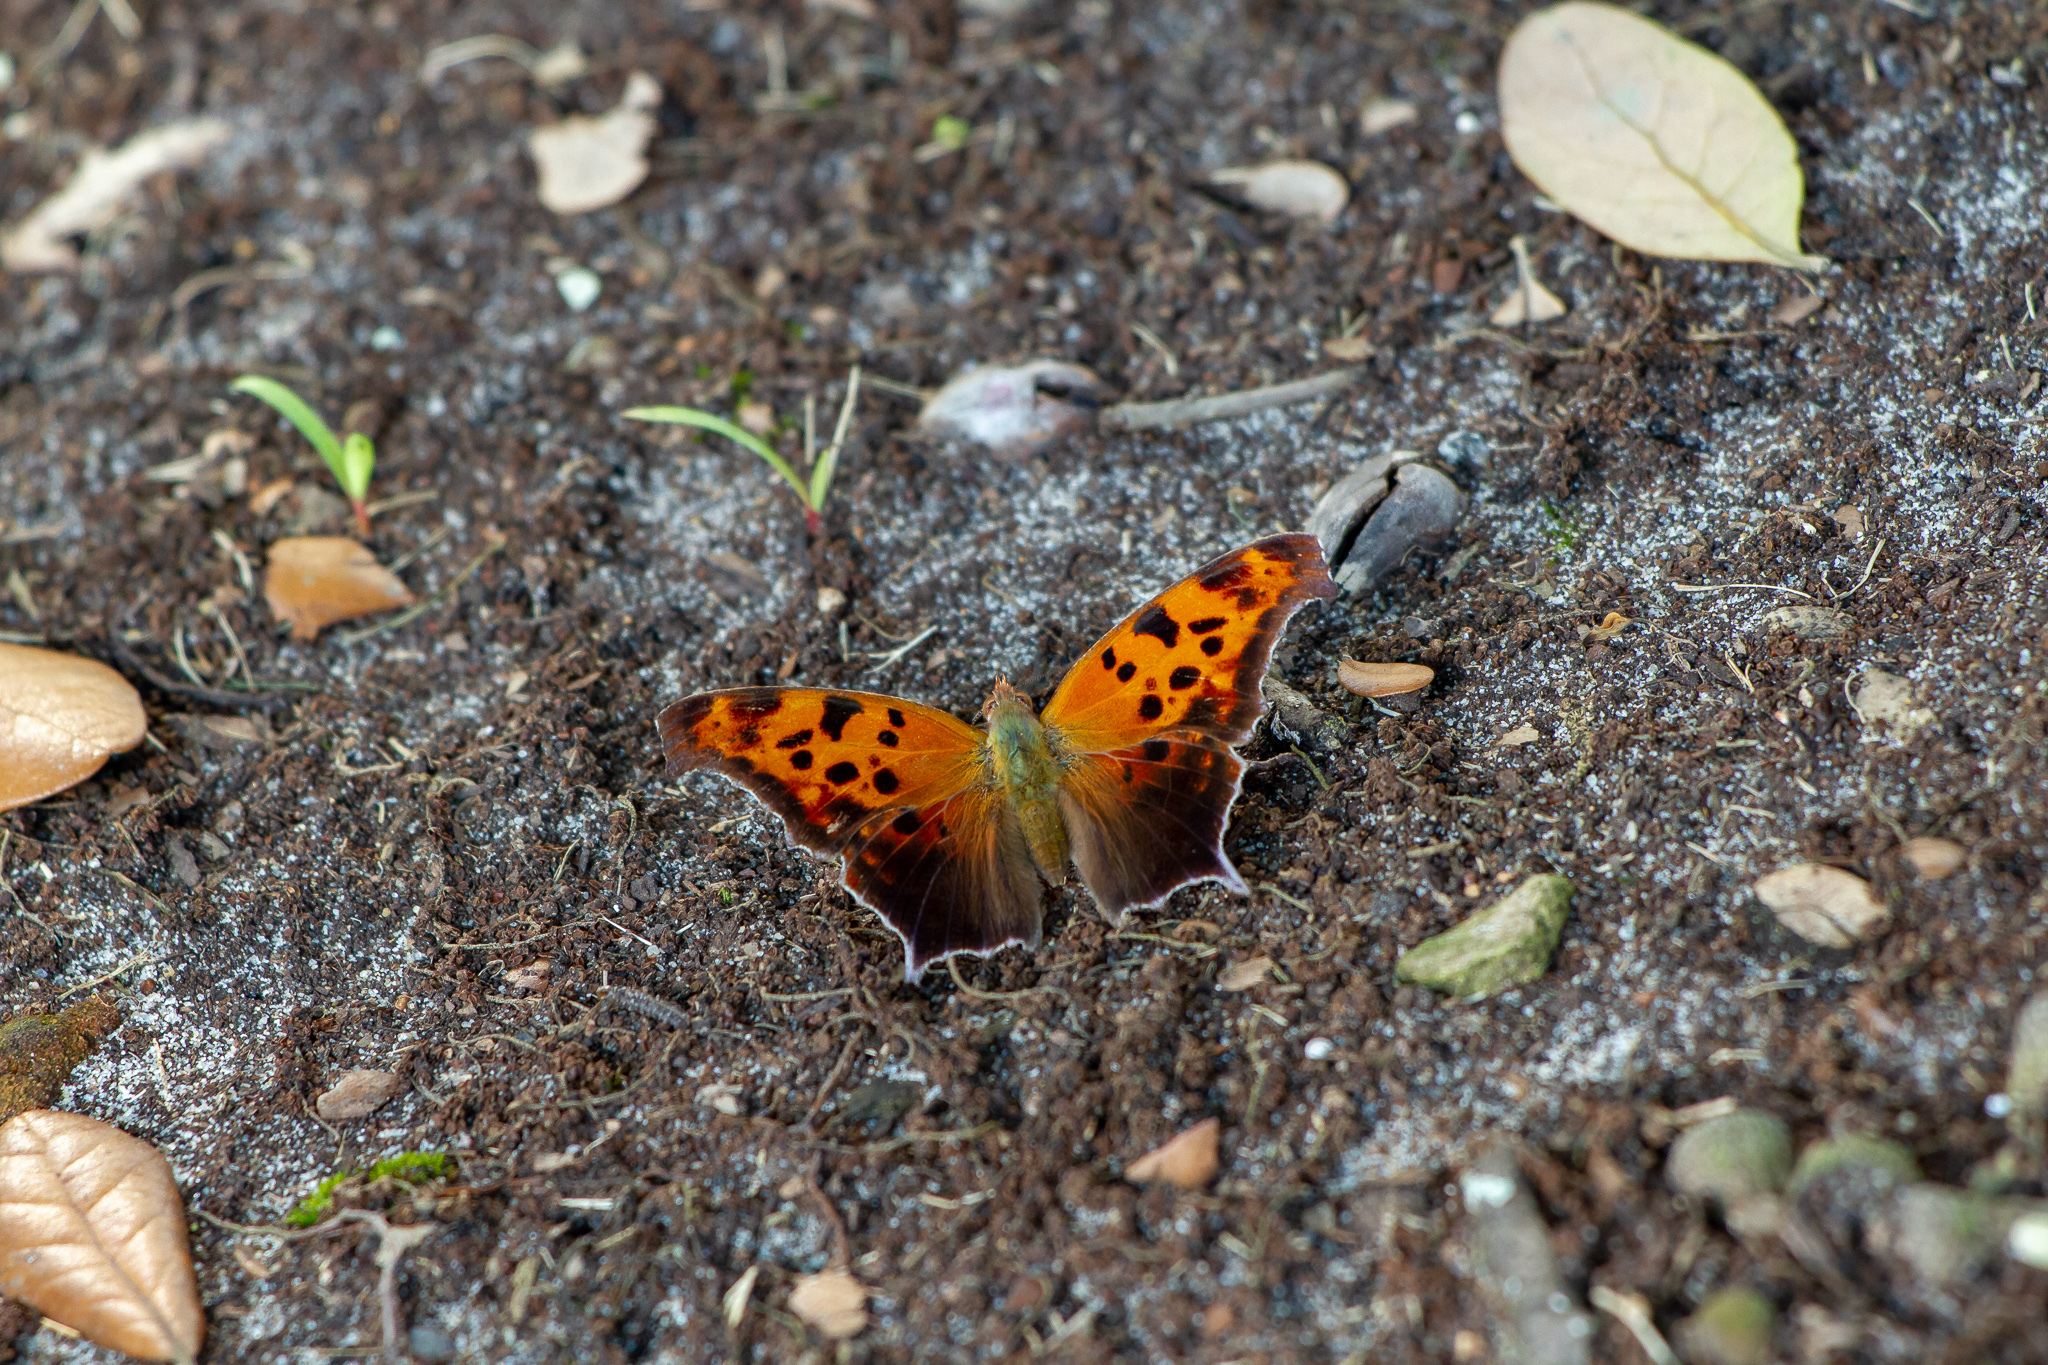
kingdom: Animalia
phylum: Arthropoda
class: Insecta
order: Lepidoptera
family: Nymphalidae
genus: Polygonia
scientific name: Polygonia interrogationis
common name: Question mark
